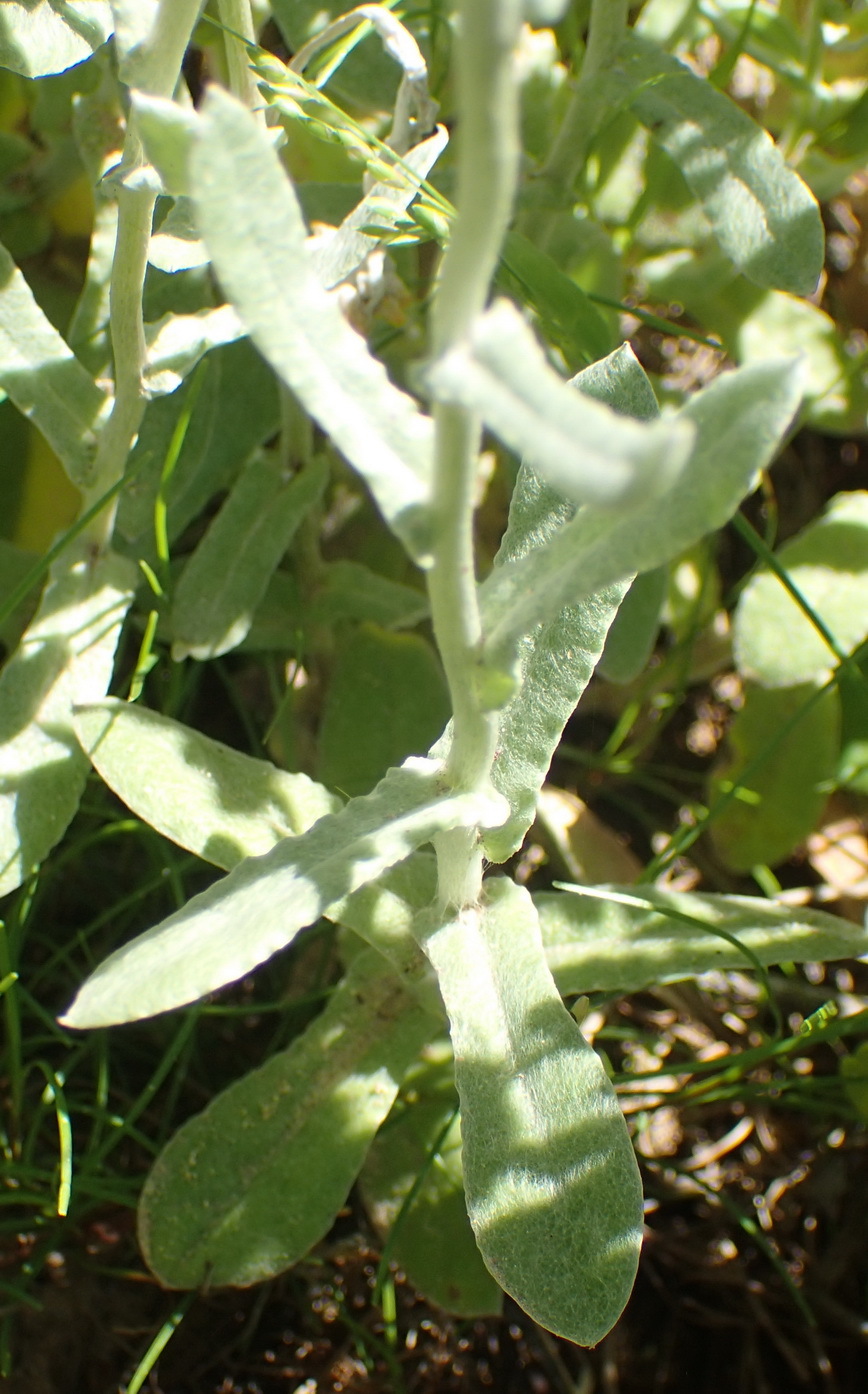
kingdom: Plantae
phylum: Tracheophyta
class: Magnoliopsida
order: Asterales
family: Asteraceae
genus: Helichrysum
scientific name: Helichrysum dasyanthum
